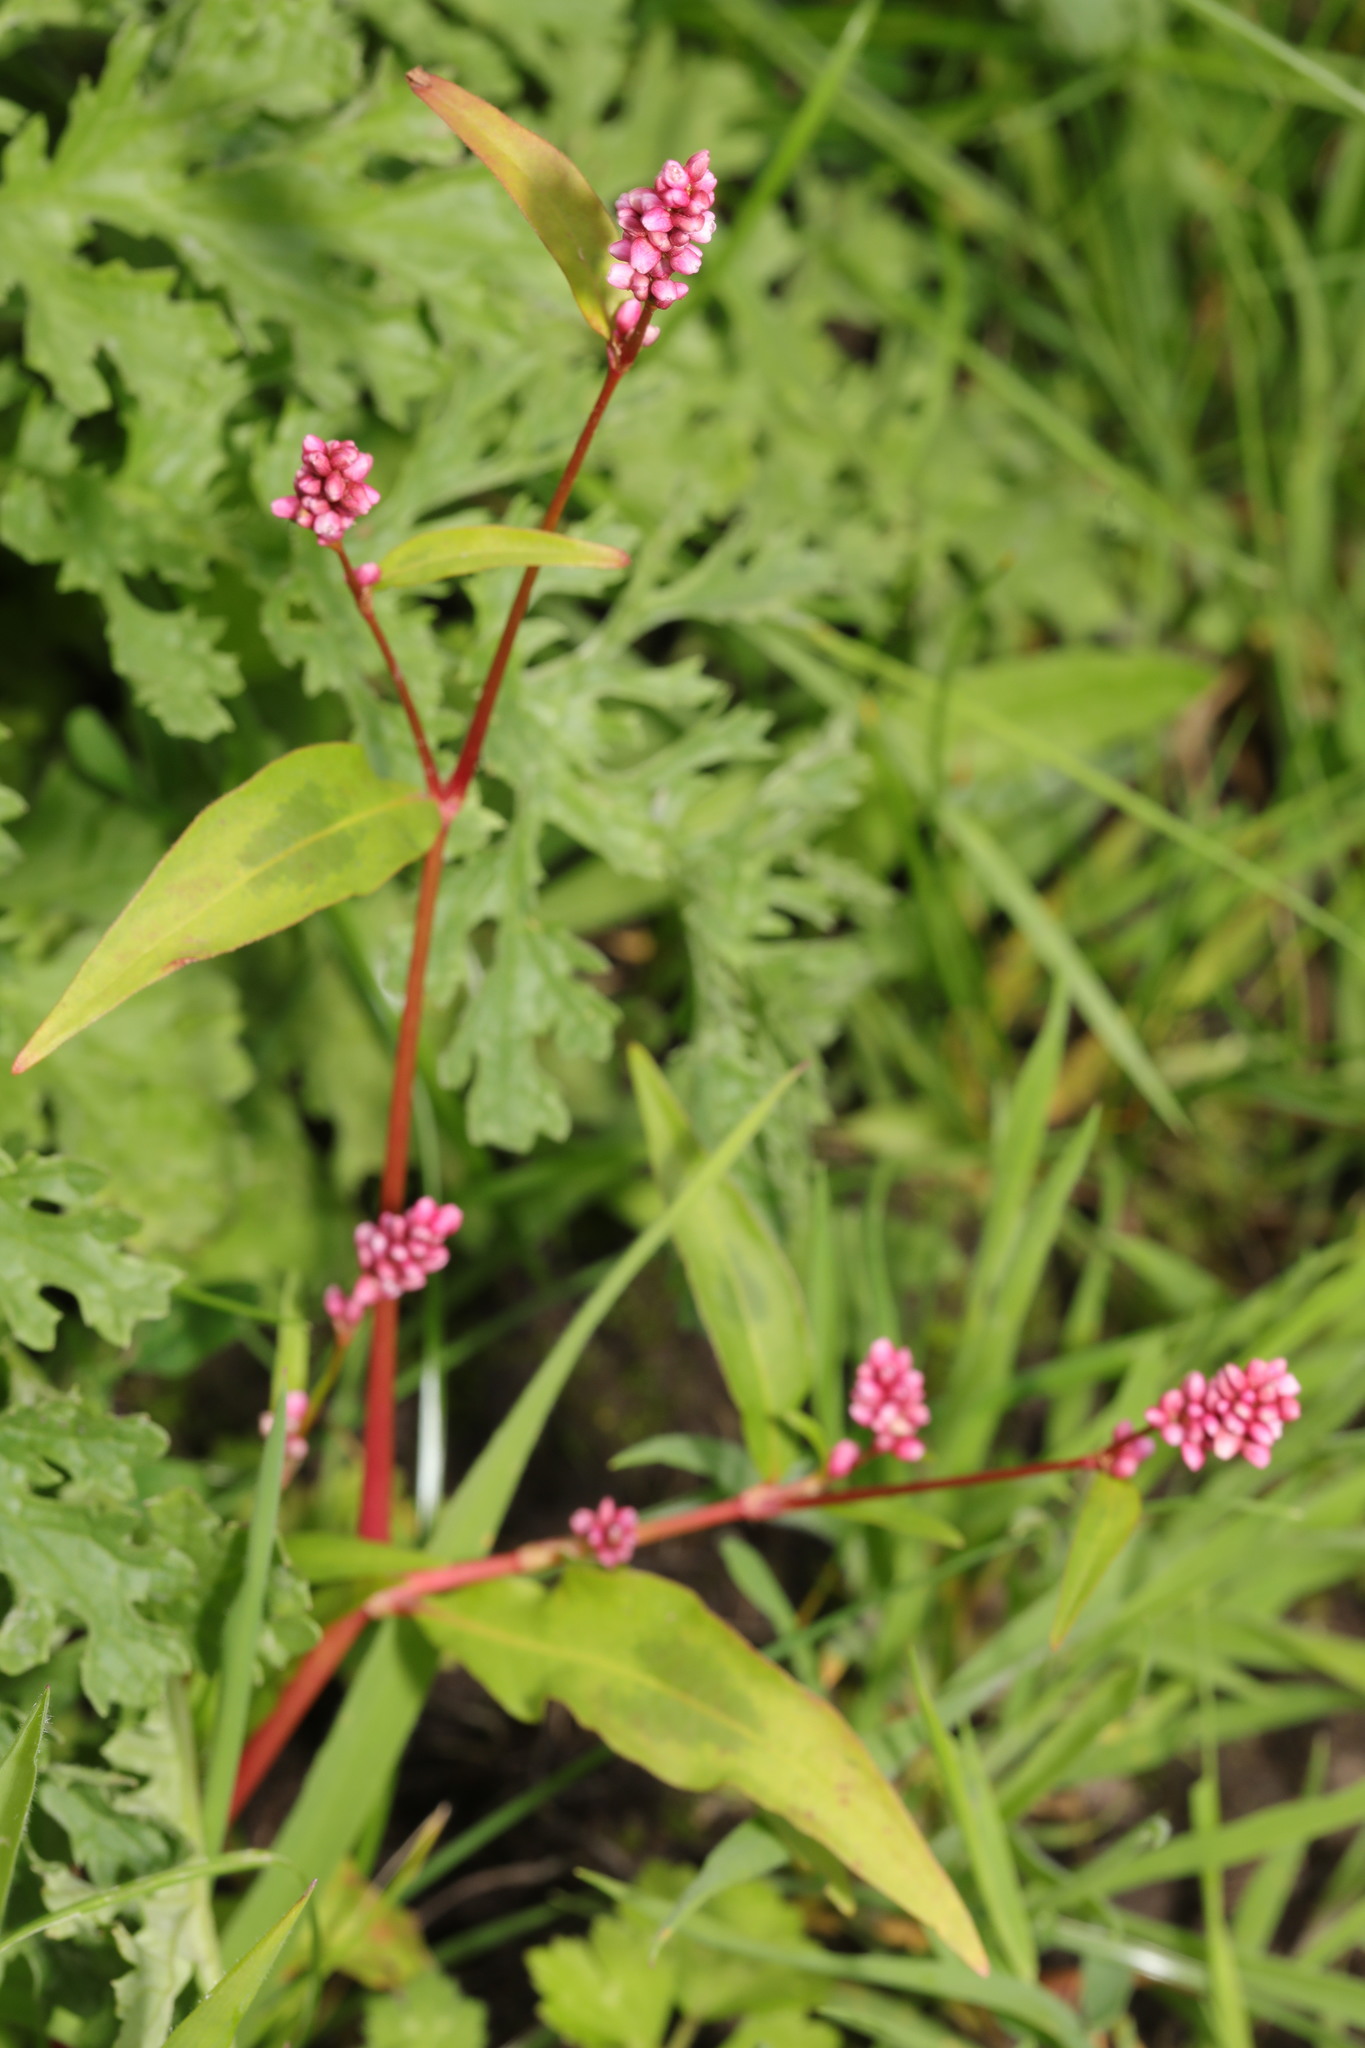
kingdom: Plantae
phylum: Tracheophyta
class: Magnoliopsida
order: Caryophyllales
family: Polygonaceae
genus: Persicaria
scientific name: Persicaria maculosa
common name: Redshank
